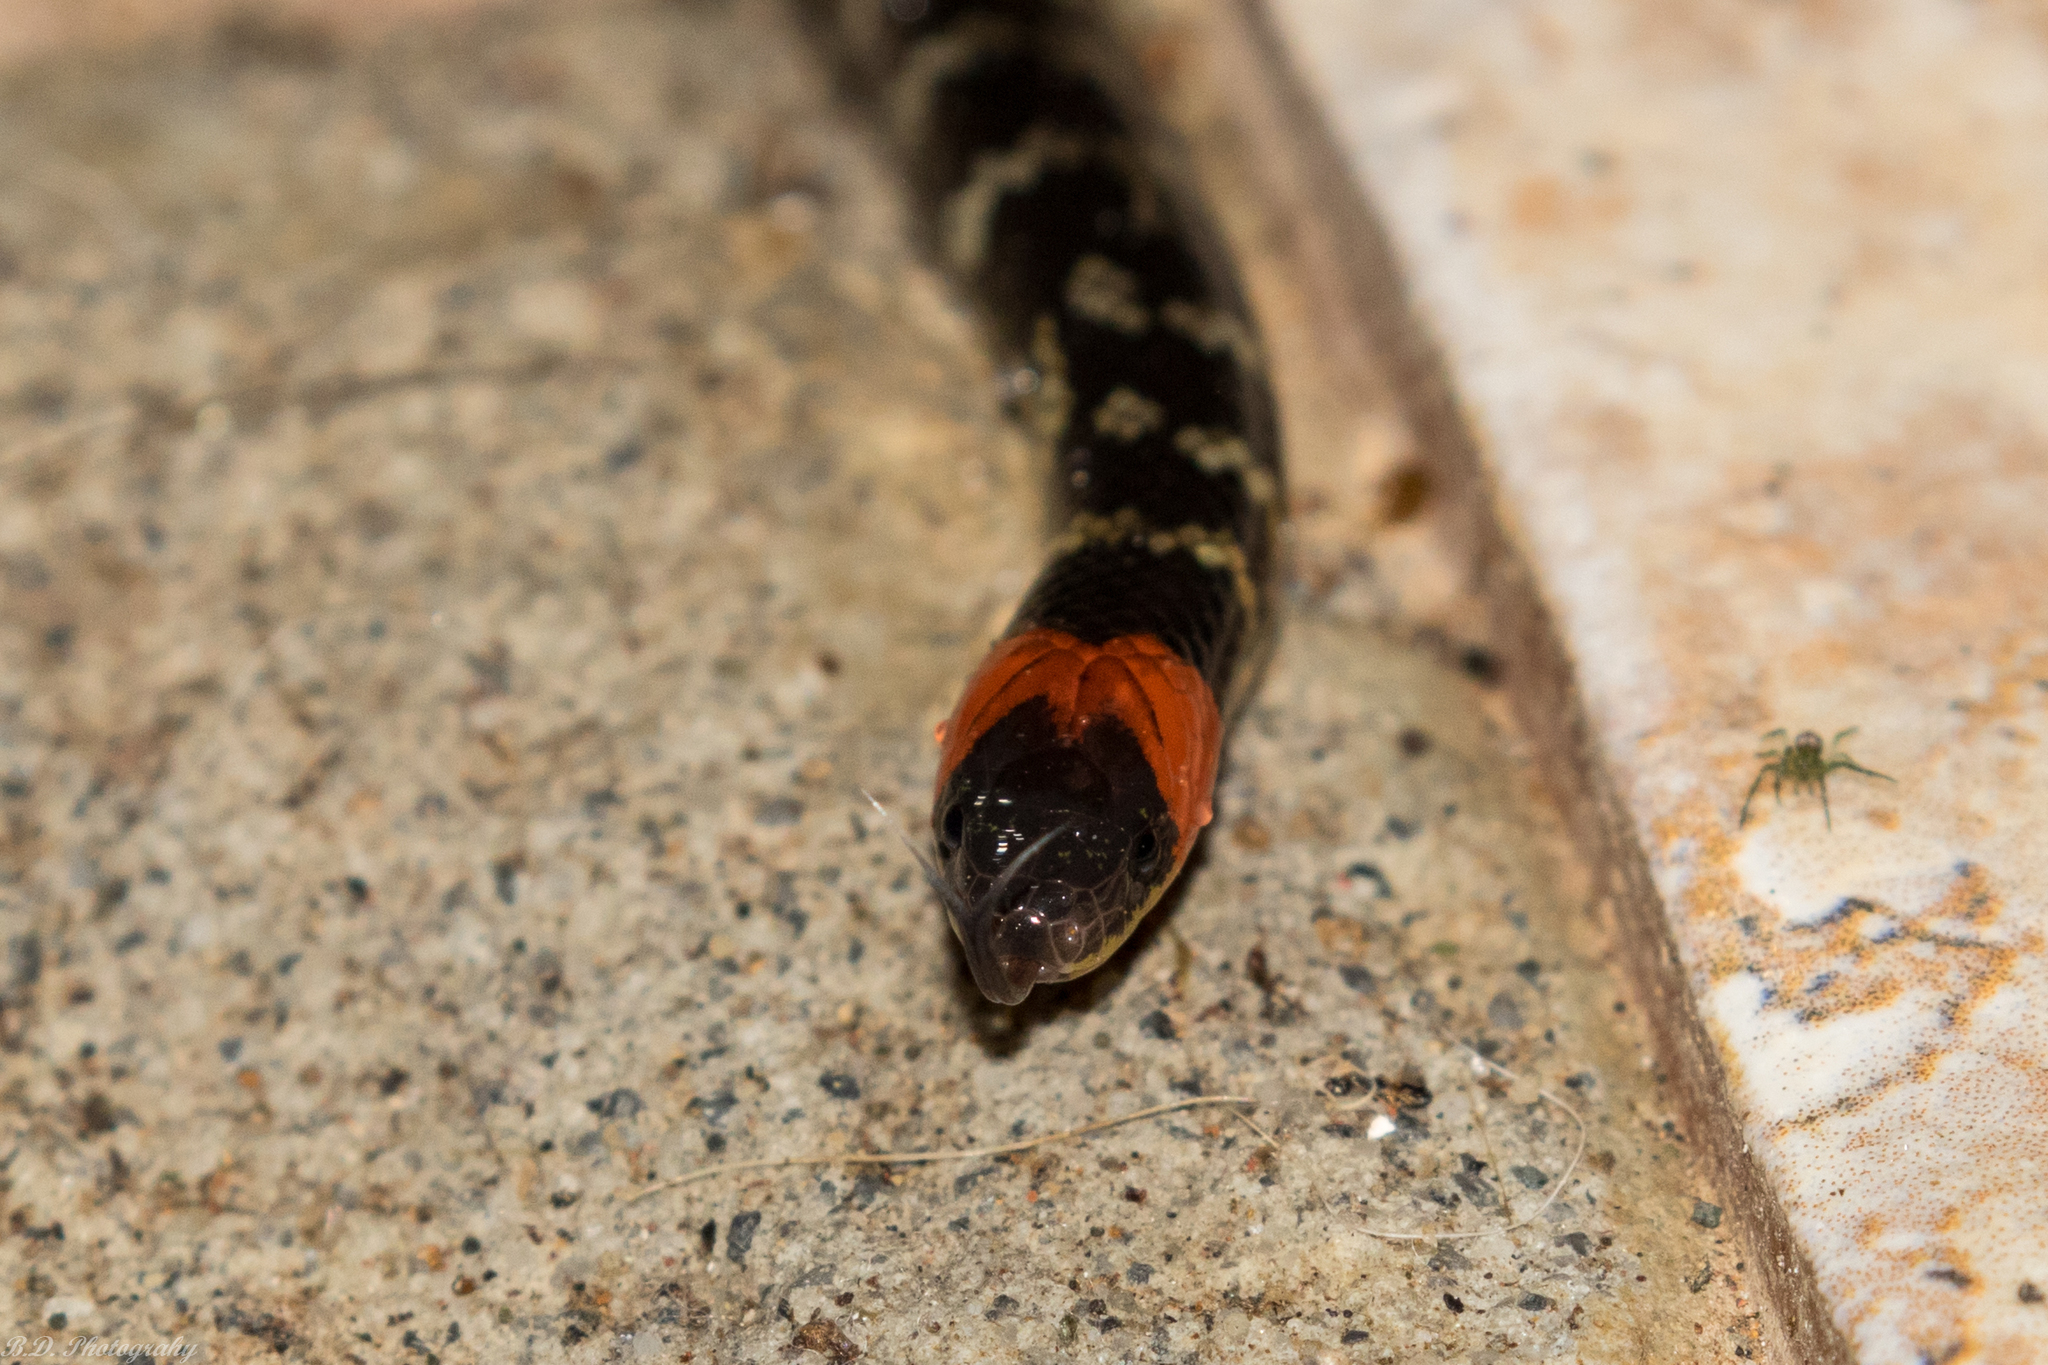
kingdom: Animalia
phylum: Chordata
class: Squamata
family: Colubridae
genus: Atractus
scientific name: Atractus clarki
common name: Clark's ground snake
